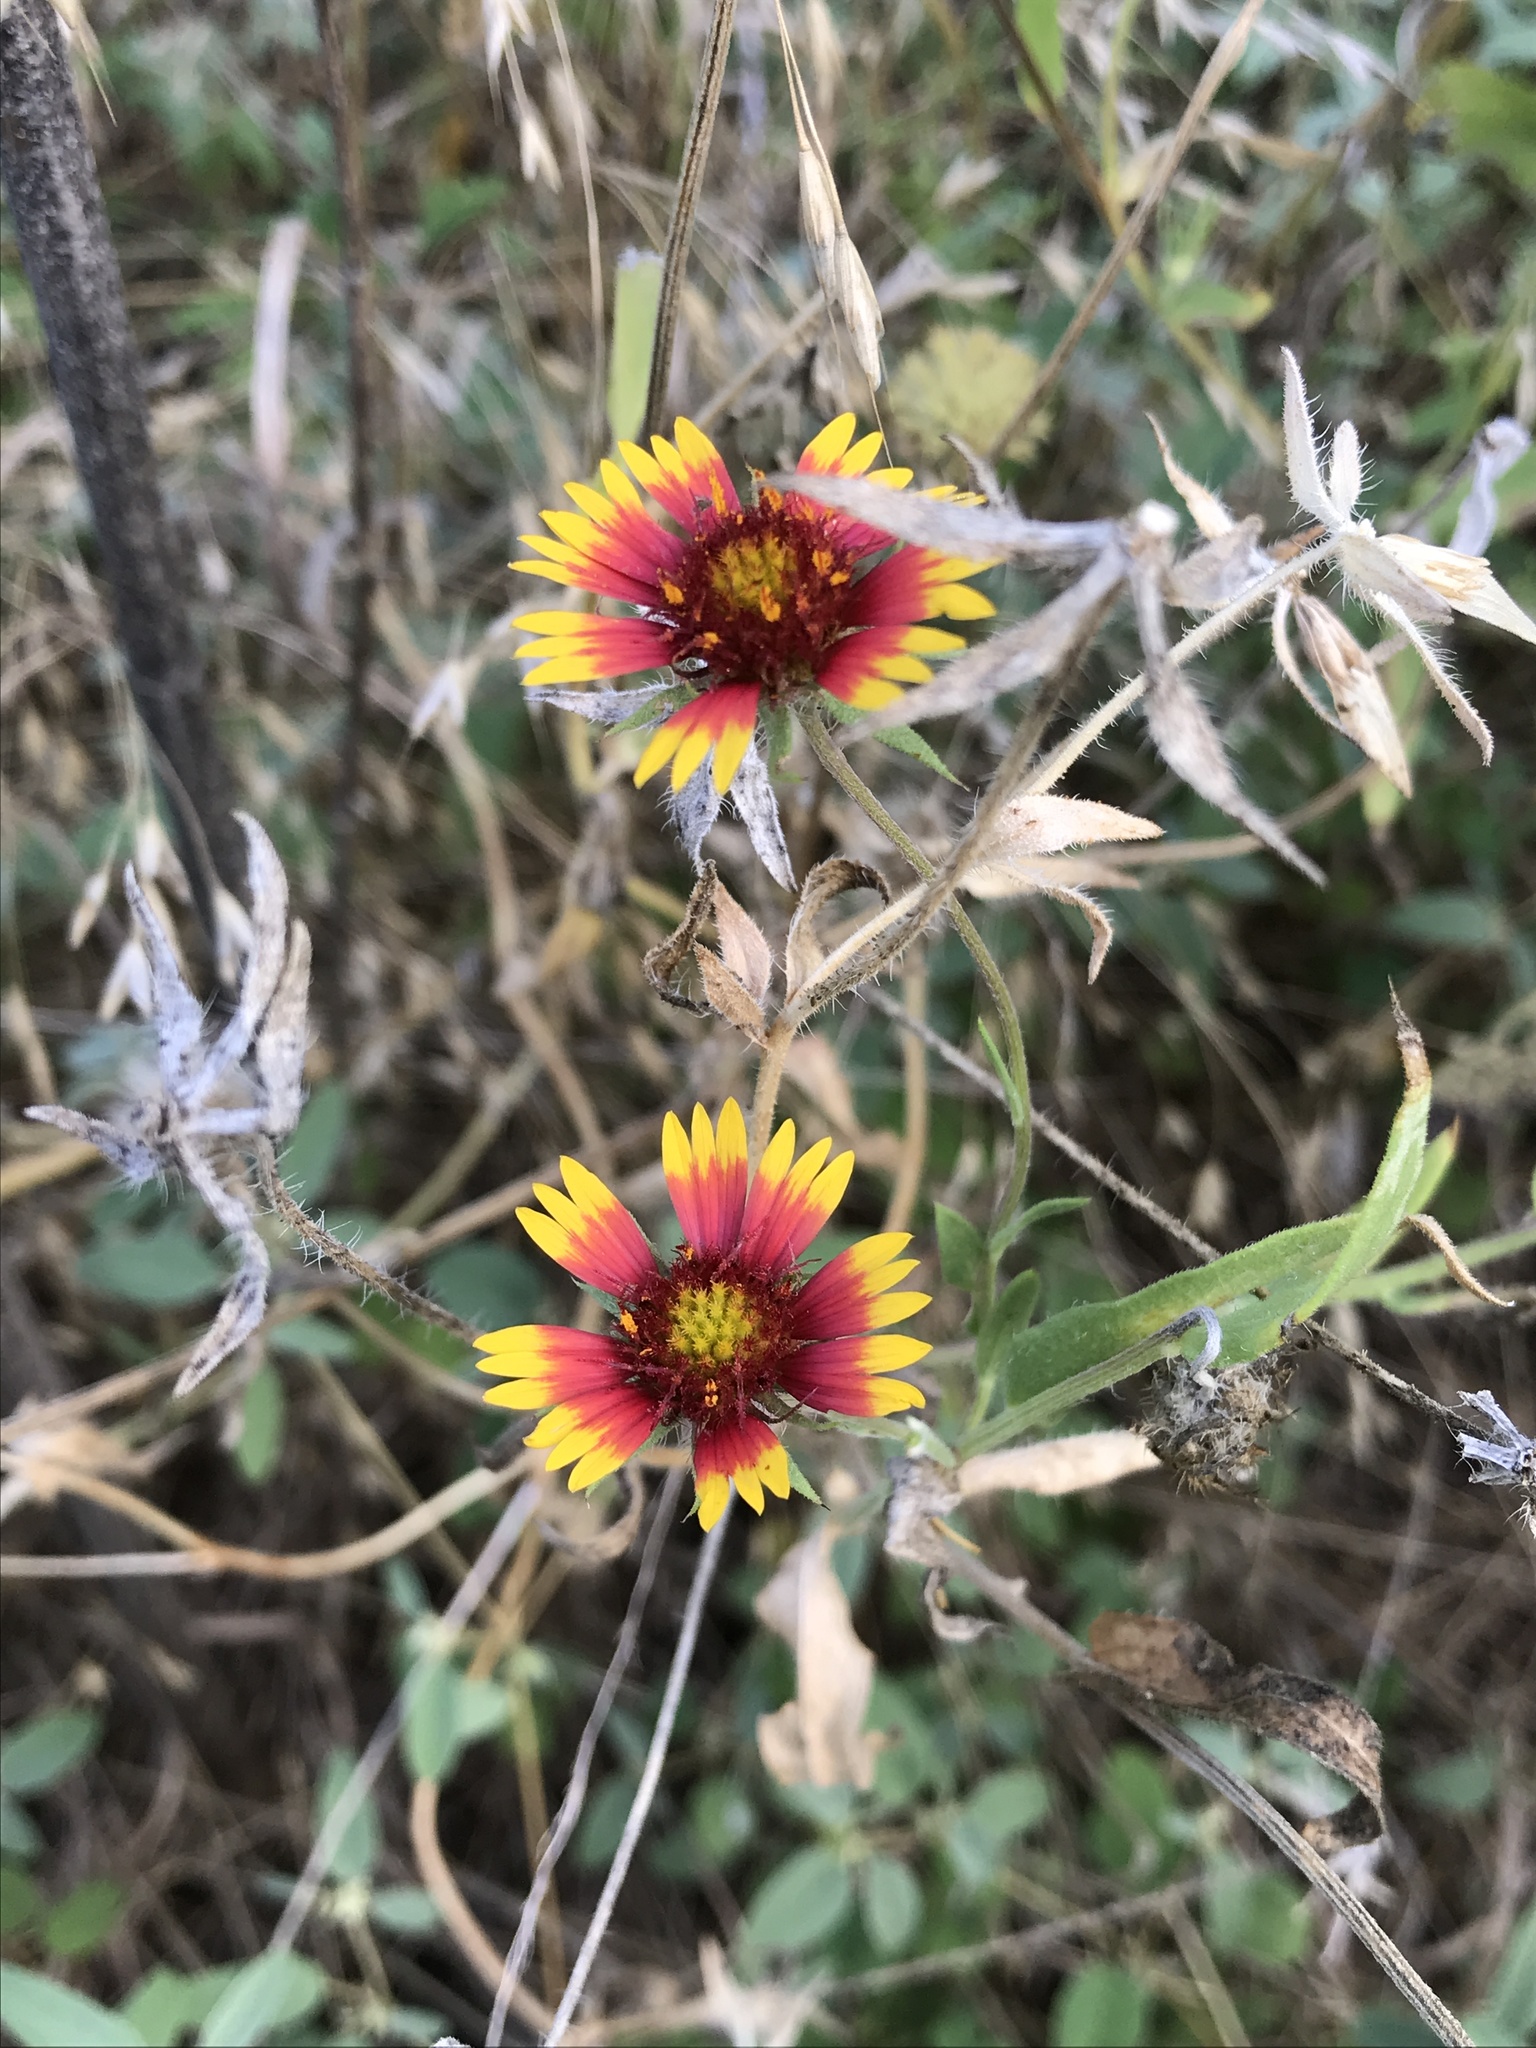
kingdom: Plantae
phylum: Tracheophyta
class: Magnoliopsida
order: Asterales
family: Asteraceae
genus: Gaillardia
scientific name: Gaillardia pulchella
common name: Firewheel
